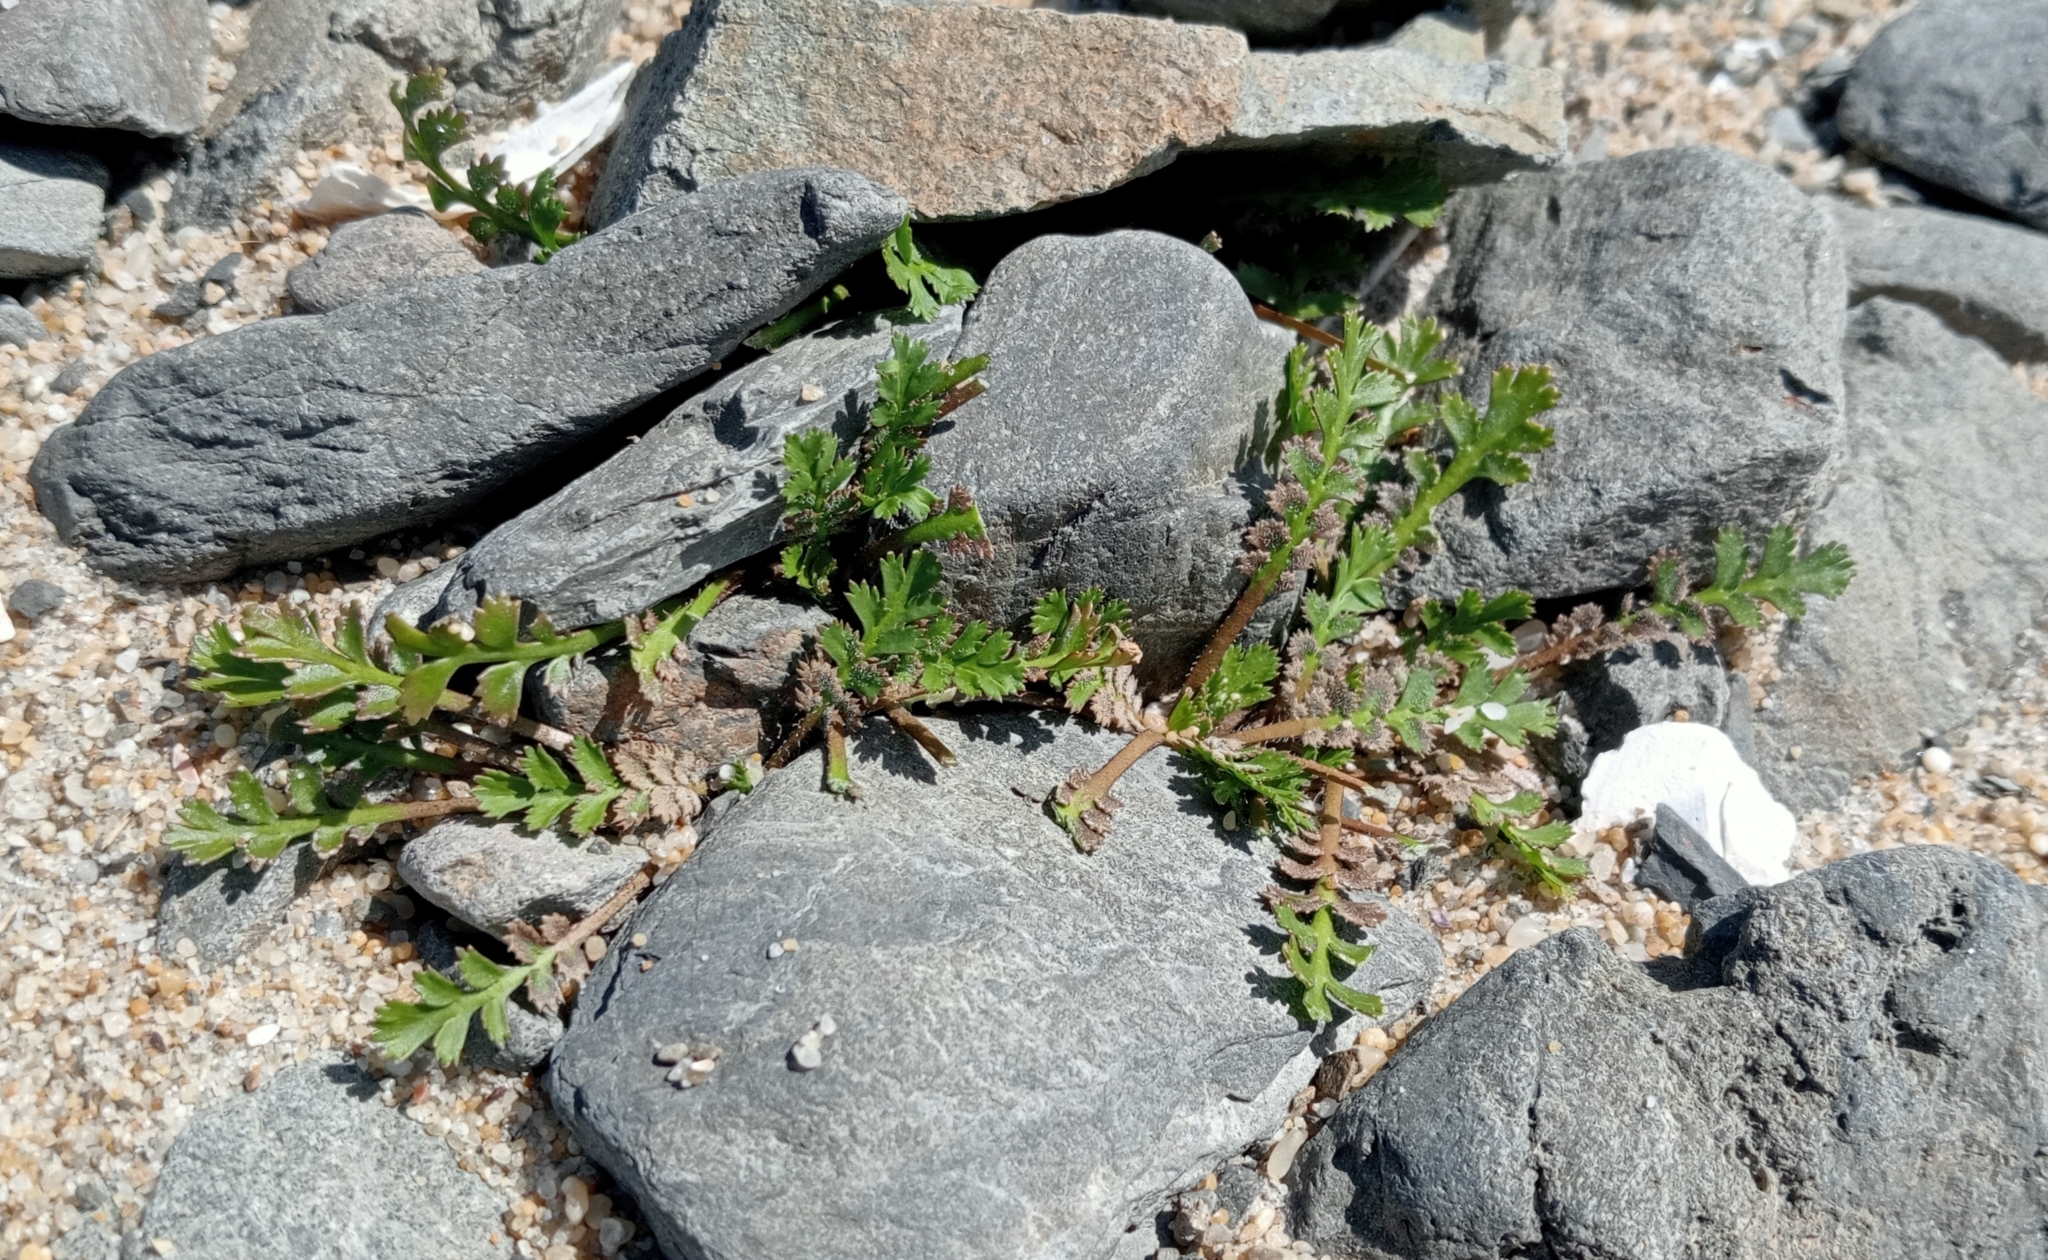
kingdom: Plantae
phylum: Tracheophyta
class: Magnoliopsida
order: Brassicales
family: Brassicaceae
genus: Lepidium
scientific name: Lepidium tenuicaule
